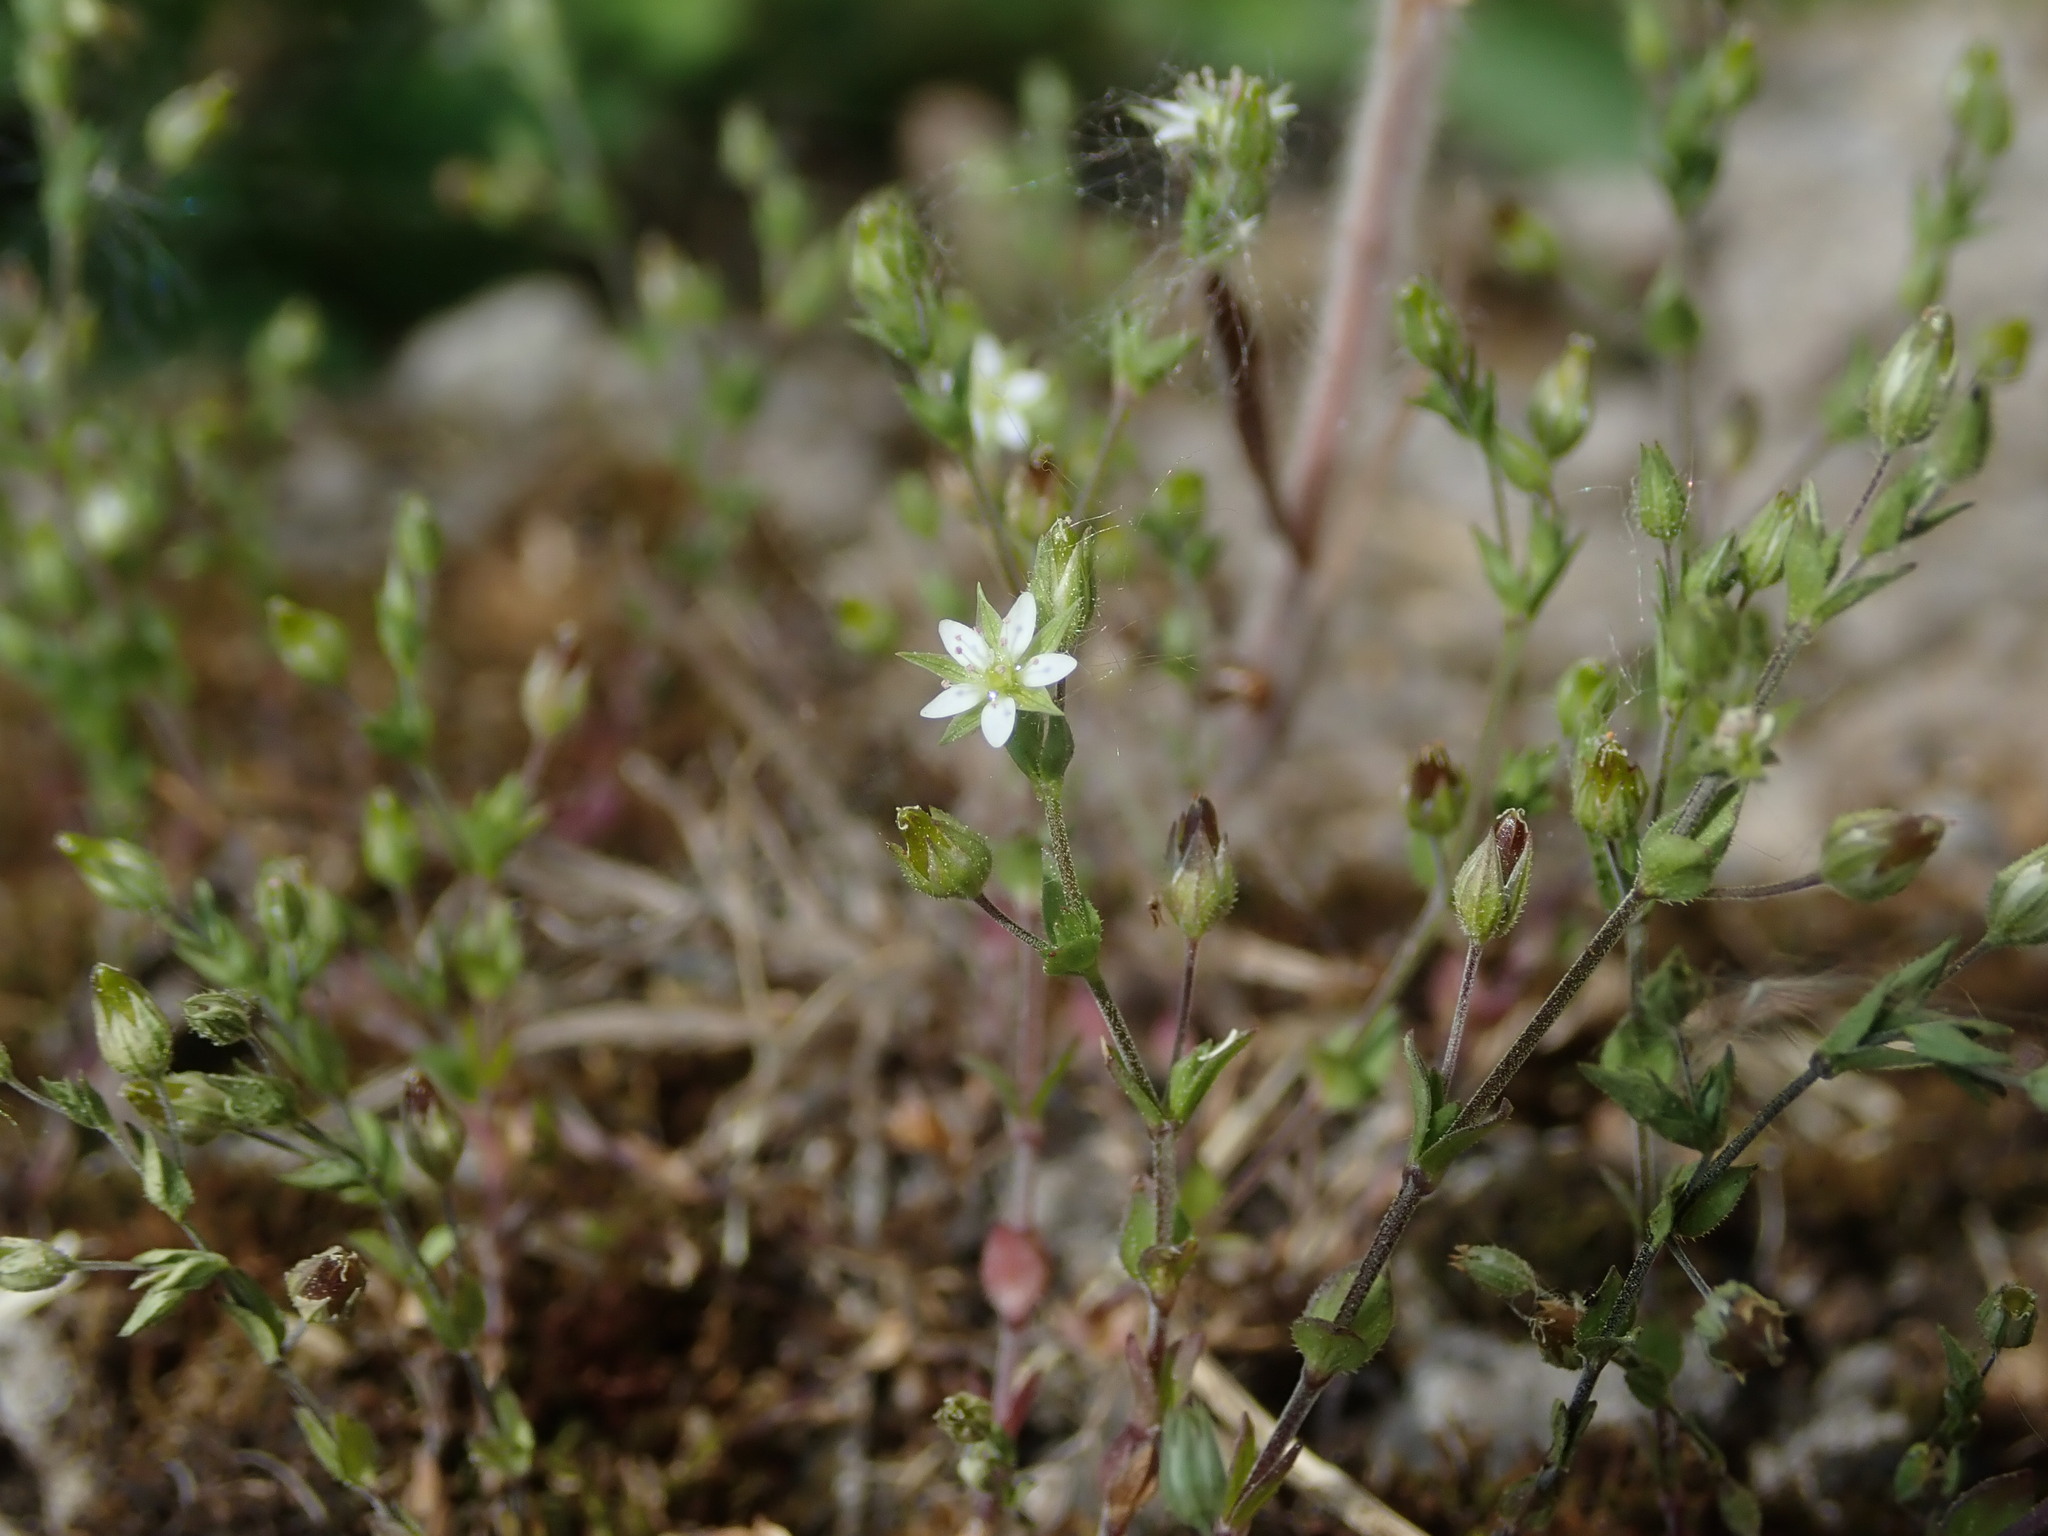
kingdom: Plantae
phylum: Tracheophyta
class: Magnoliopsida
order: Caryophyllales
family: Caryophyllaceae
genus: Arenaria
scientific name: Arenaria serpyllifolia
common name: Thyme-leaved sandwort
